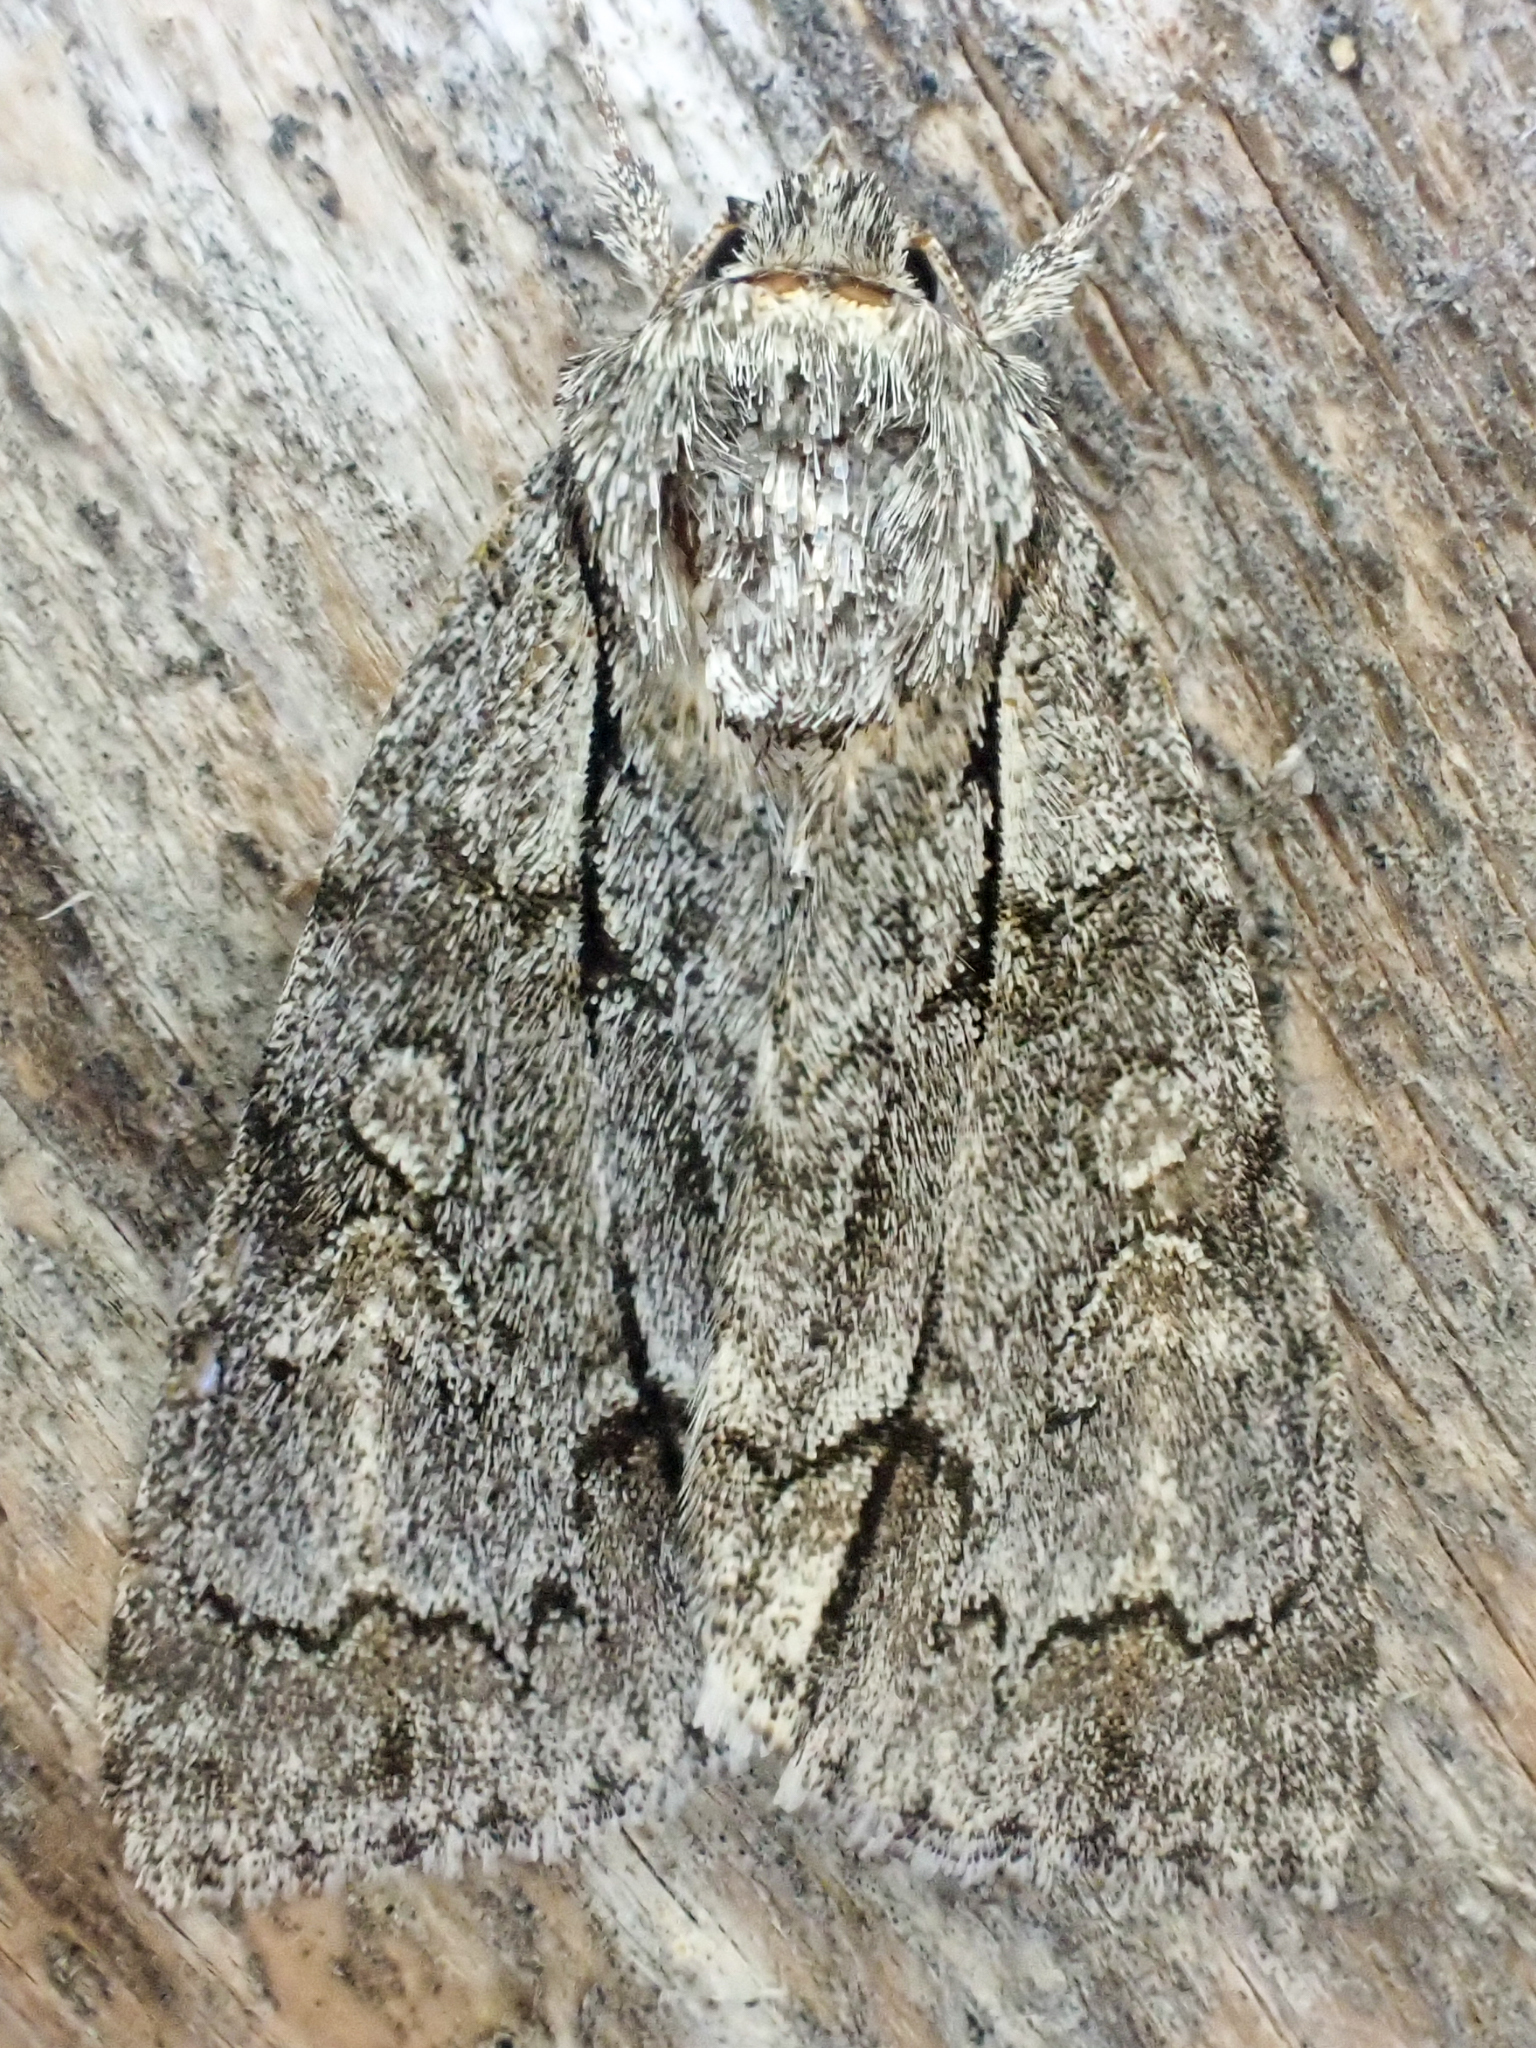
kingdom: Animalia
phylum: Arthropoda
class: Insecta
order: Lepidoptera
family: Noctuidae
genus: Acronicta
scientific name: Acronicta grisea
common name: Gray dagger
